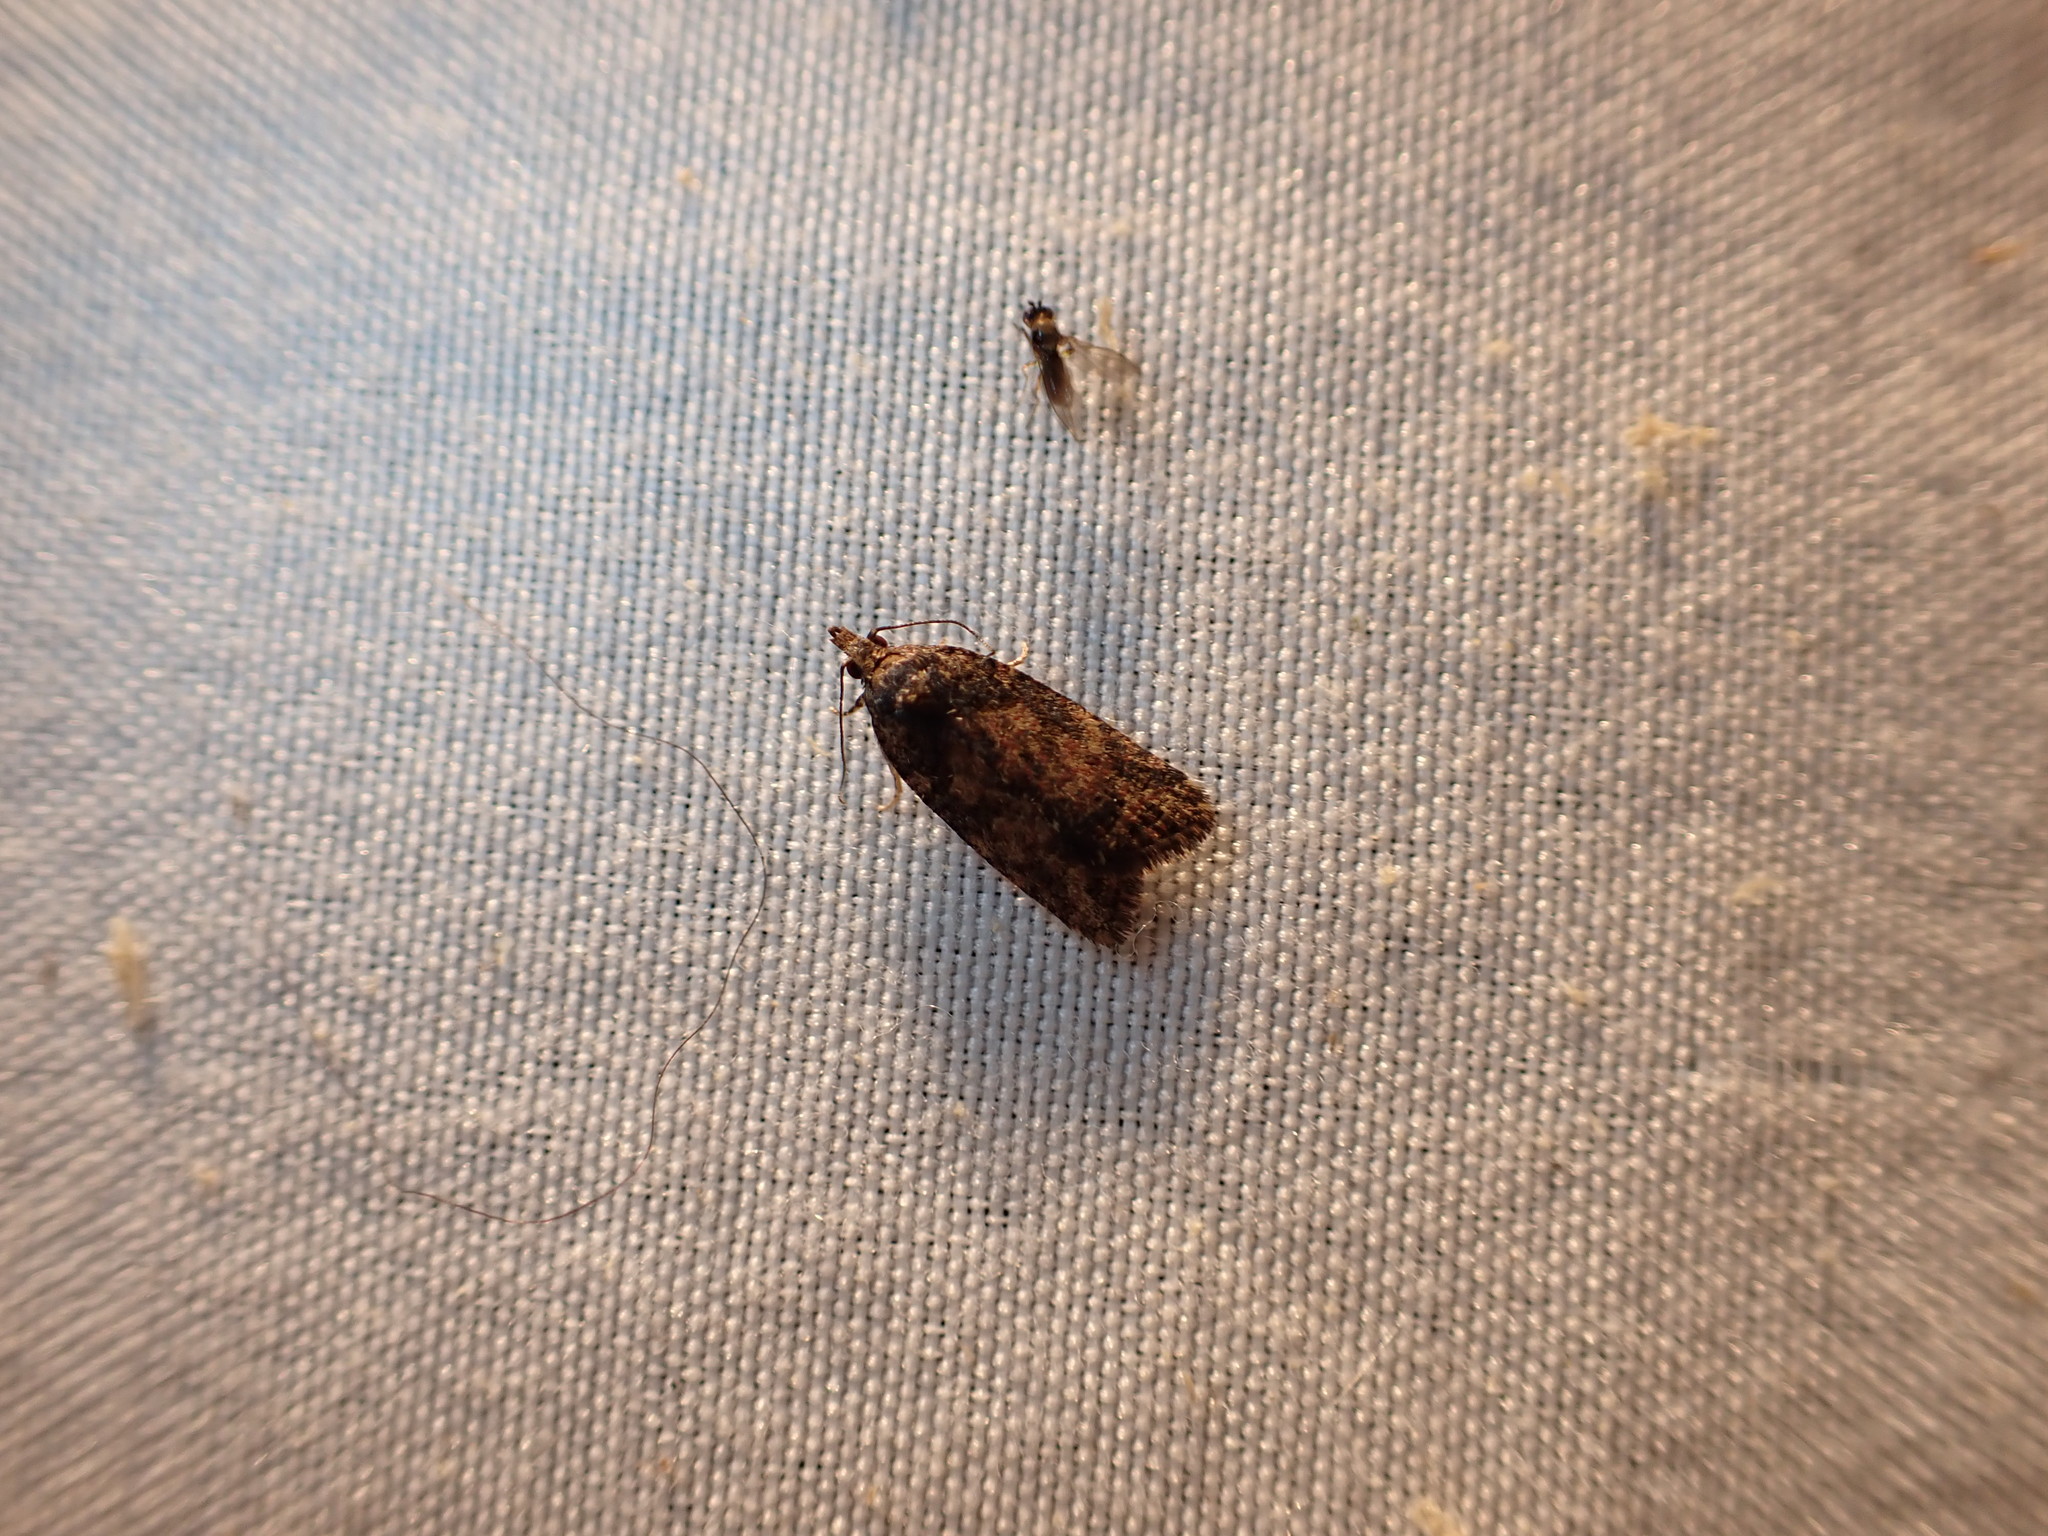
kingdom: Animalia
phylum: Arthropoda
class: Insecta
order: Lepidoptera
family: Tortricidae
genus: Capua
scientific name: Capua intractana
